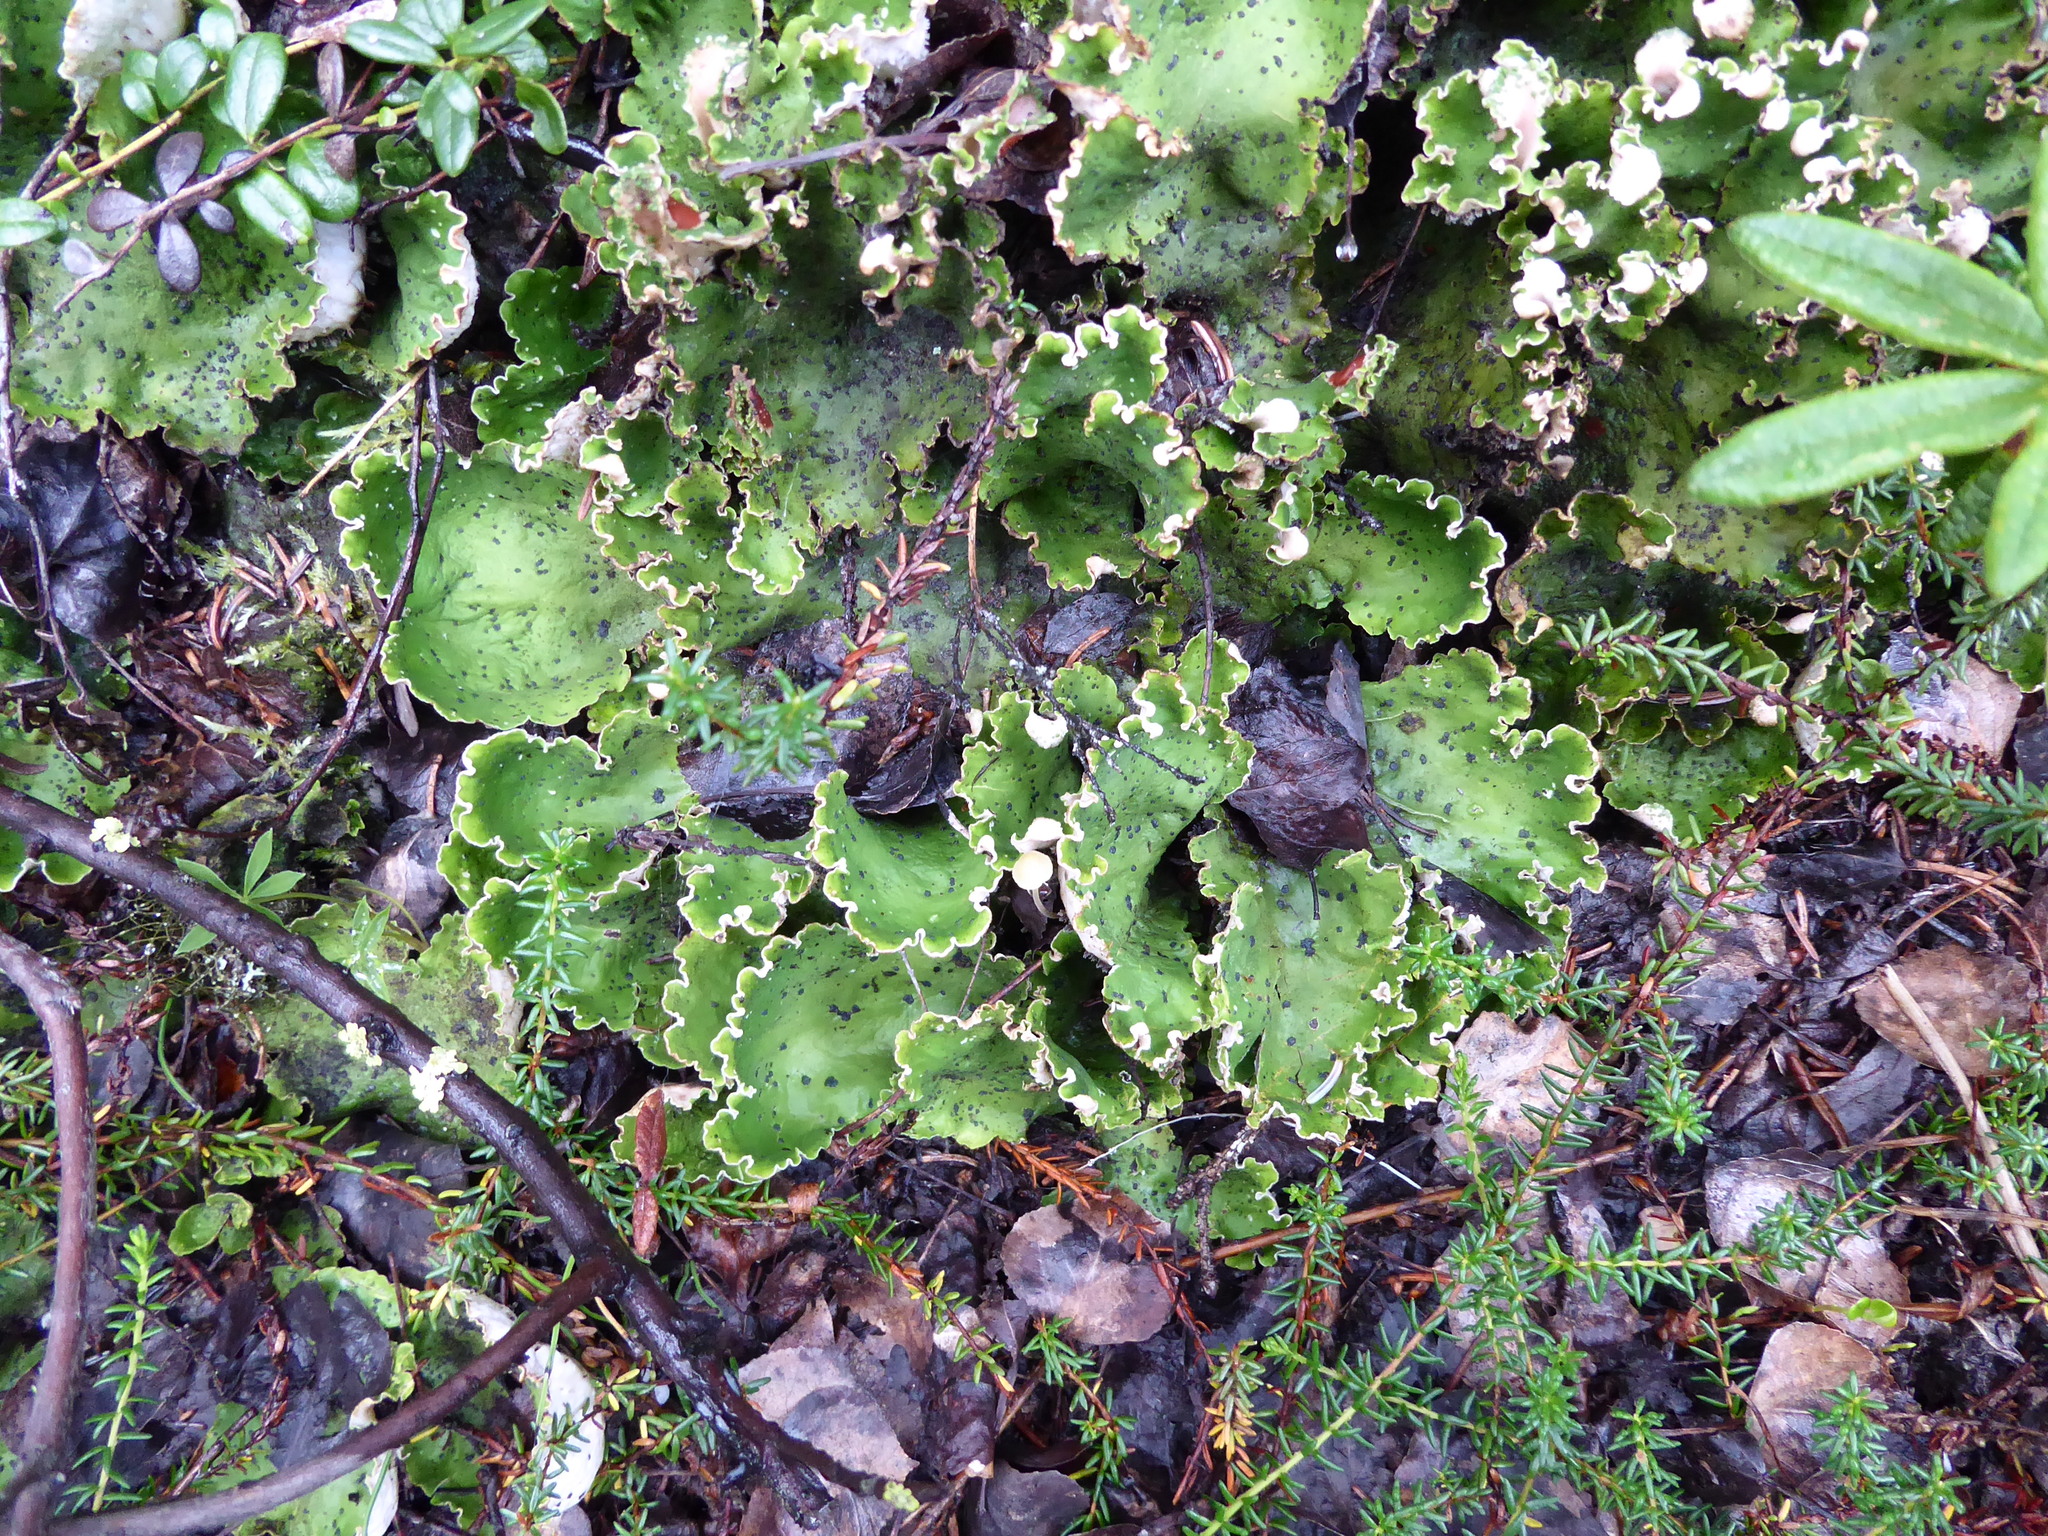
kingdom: Fungi
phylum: Ascomycota
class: Lecanoromycetes
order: Peltigerales
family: Peltigeraceae
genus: Peltigera
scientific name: Peltigera leucophlebia
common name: Ruffled freckle pelt lichen
